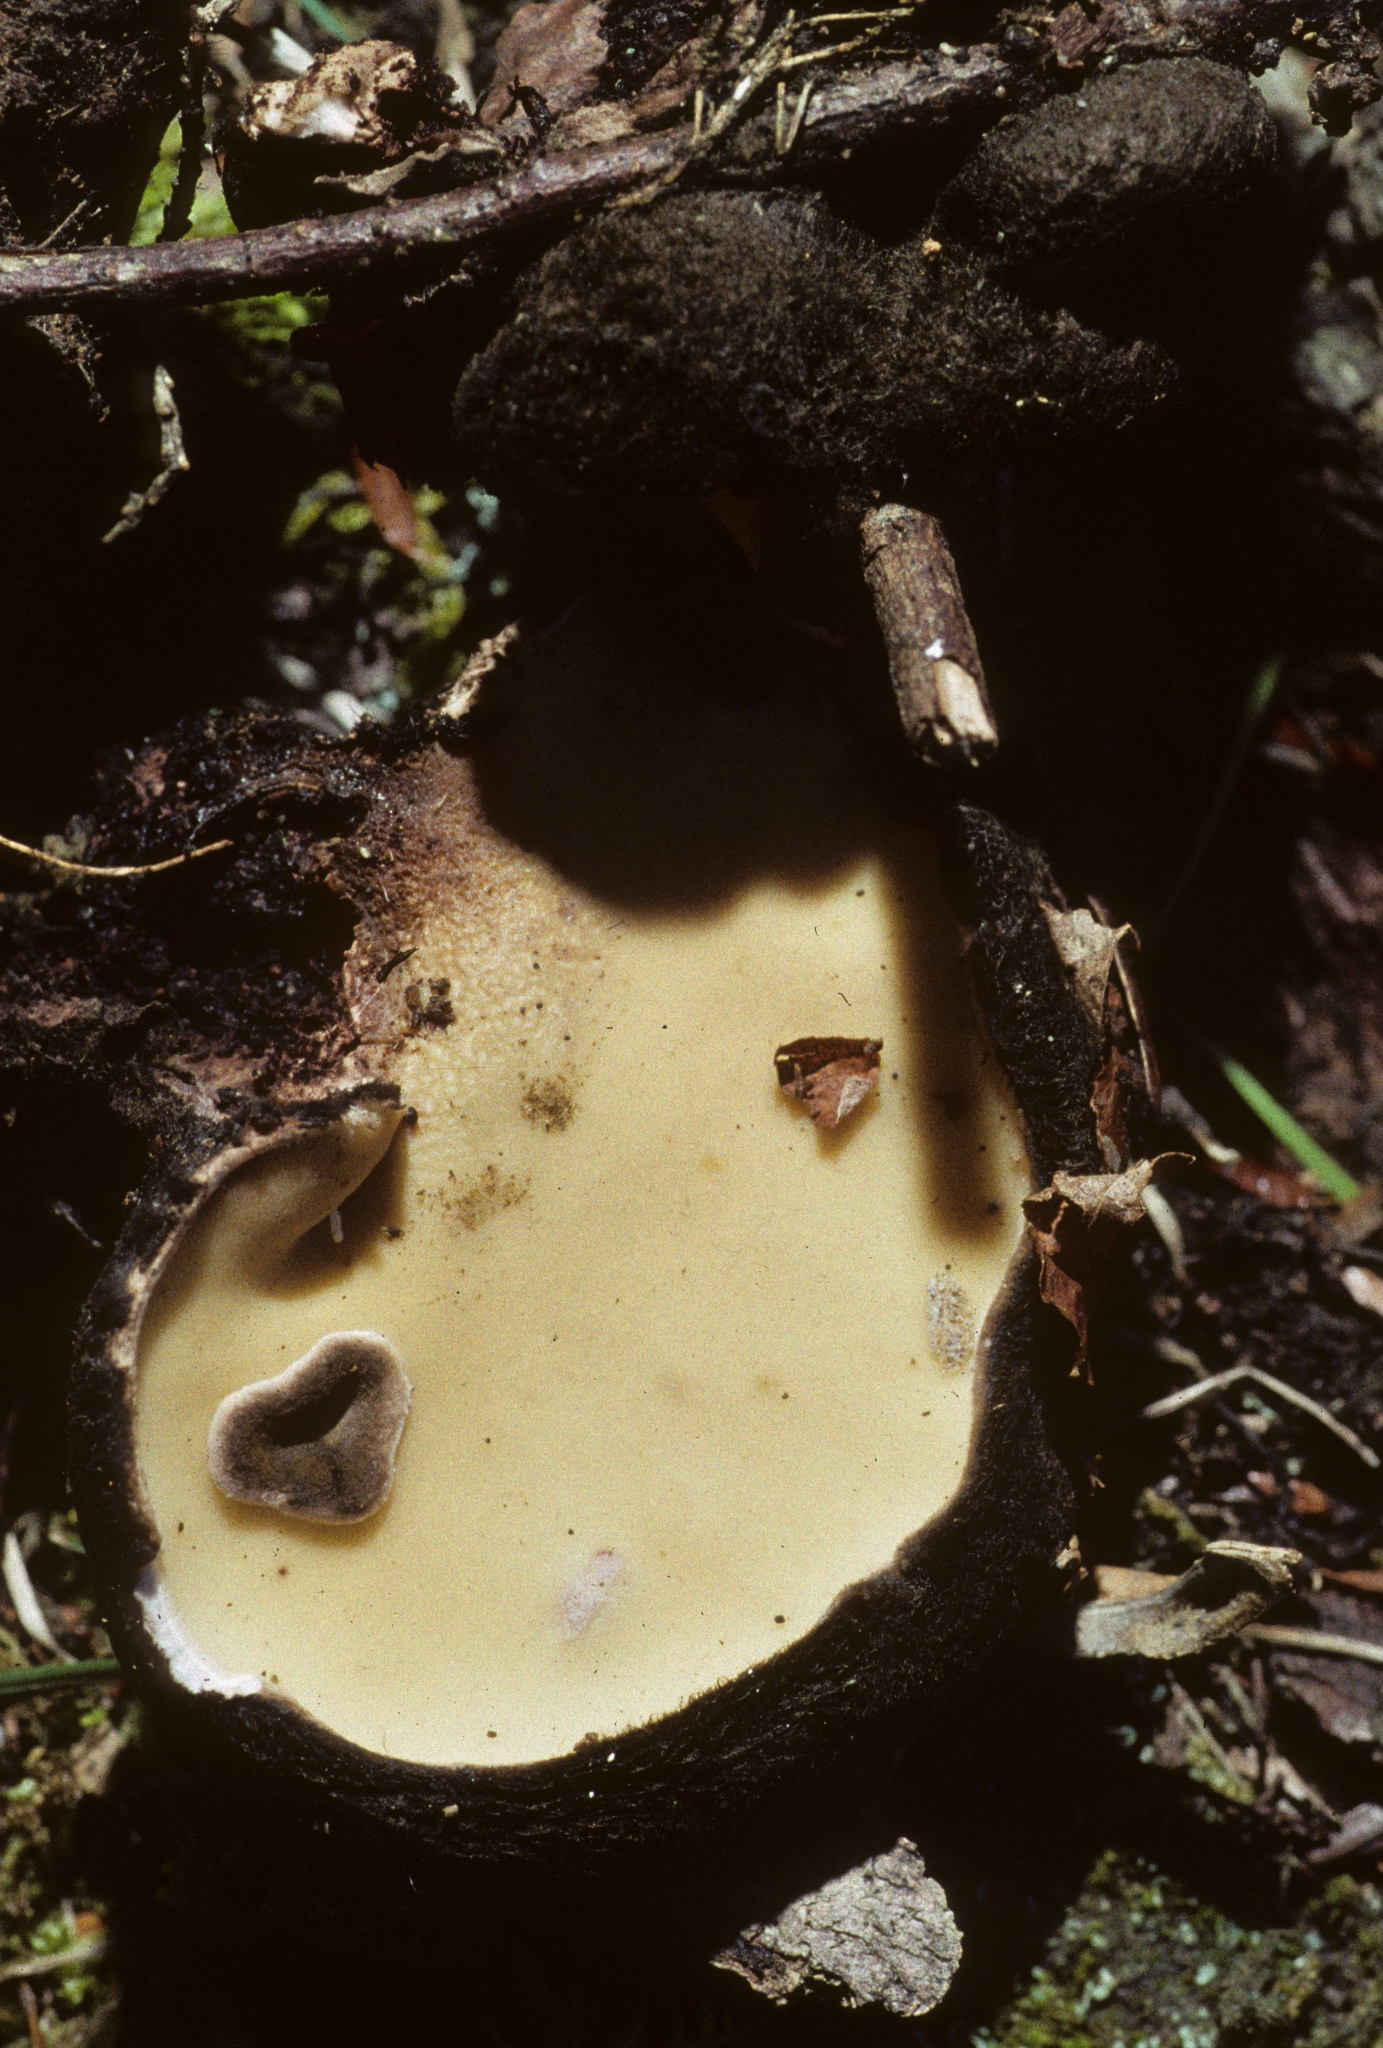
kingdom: Fungi
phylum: Ascomycota
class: Pezizomycetes
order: Pezizales
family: Chorioactidaceae
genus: Wolfina
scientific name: Wolfina aurantiopsis
